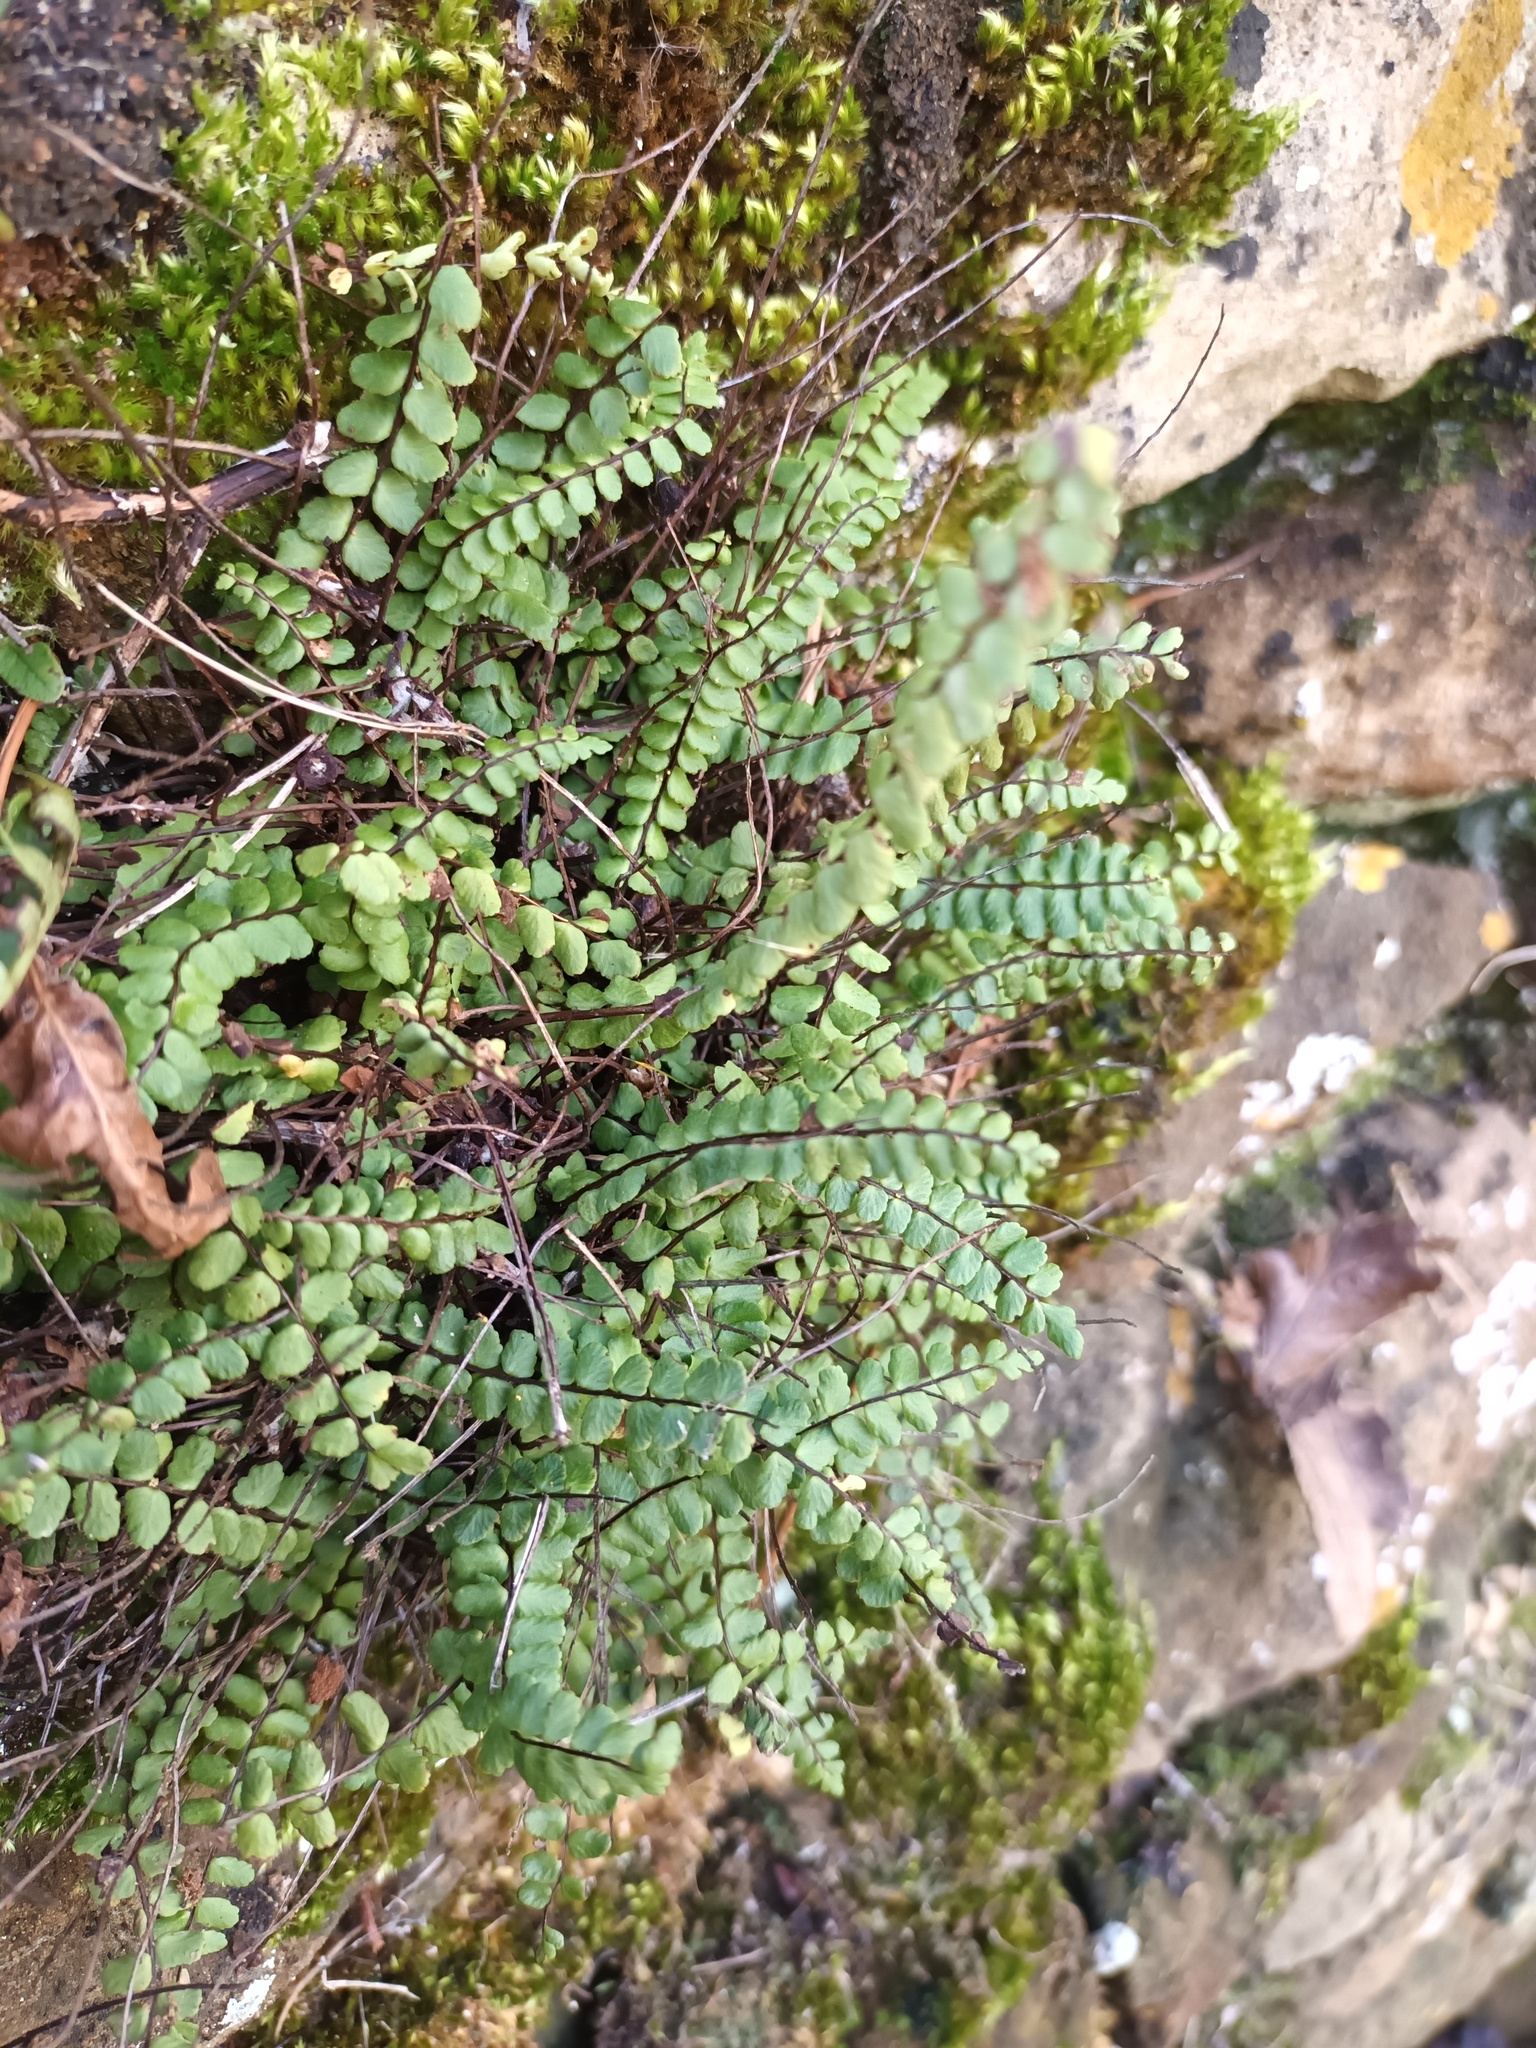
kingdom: Plantae
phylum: Tracheophyta
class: Polypodiopsida
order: Polypodiales
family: Aspleniaceae
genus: Asplenium
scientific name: Asplenium trichomanes
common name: Maidenhair spleenwort
